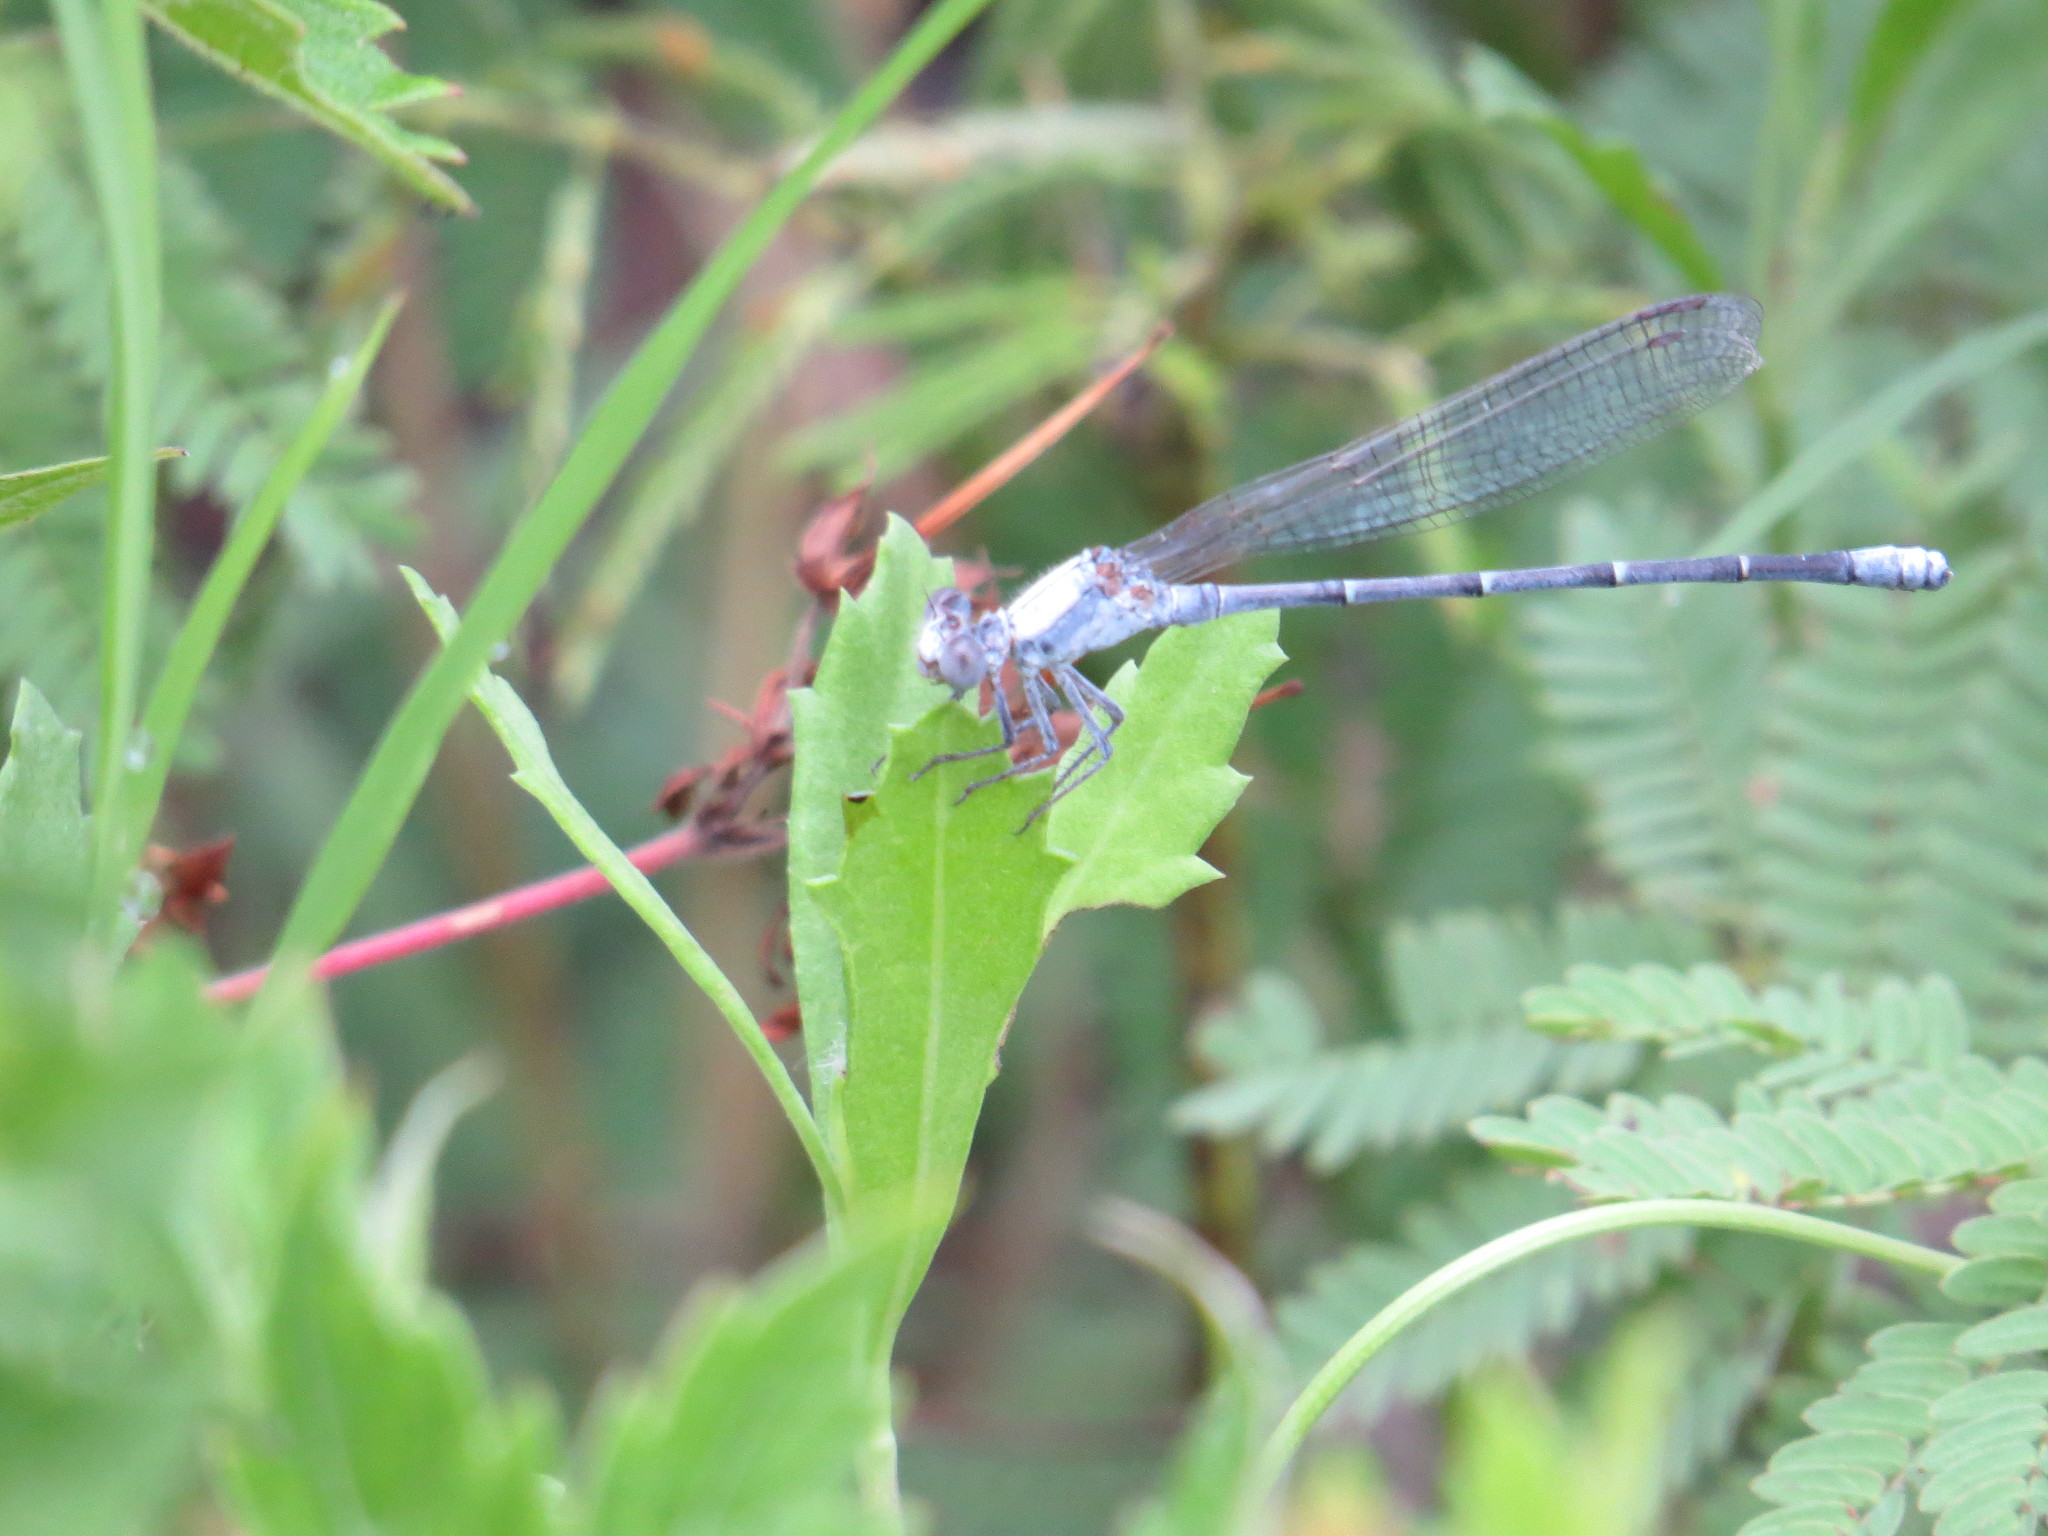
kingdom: Animalia
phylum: Arthropoda
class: Insecta
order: Odonata
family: Coenagrionidae
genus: Argia
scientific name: Argia moesta
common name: Powdered dancer
